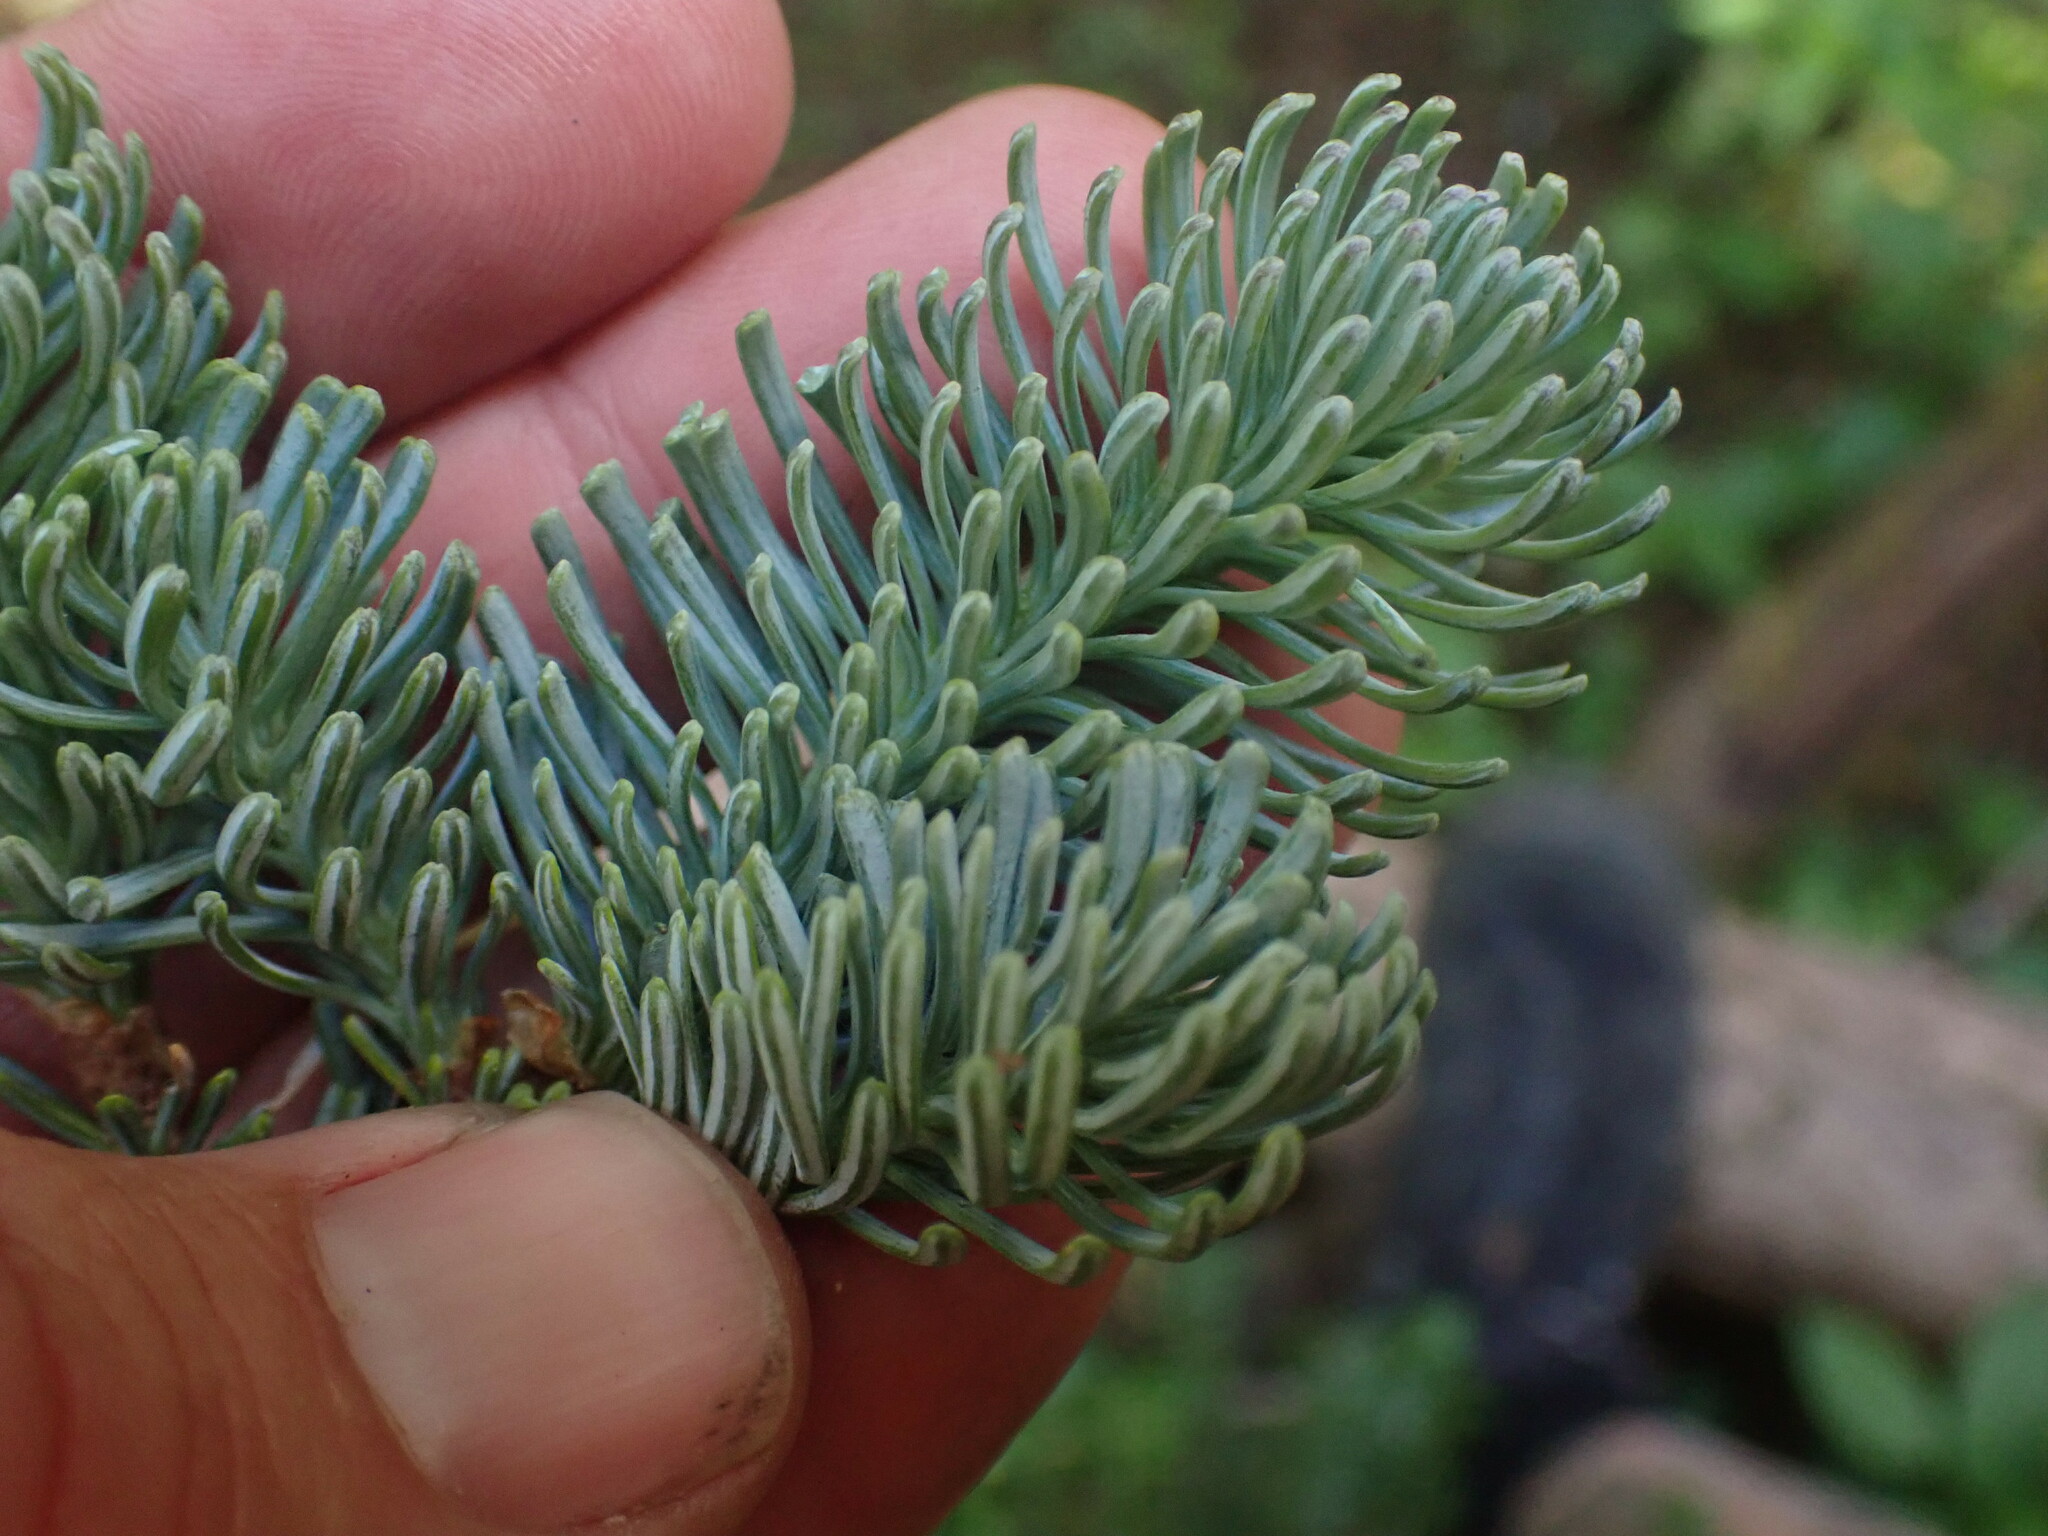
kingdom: Plantae
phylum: Tracheophyta
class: Pinopsida
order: Pinales
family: Pinaceae
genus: Abies
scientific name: Abies lasiocarpa
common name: Subalpine fir
